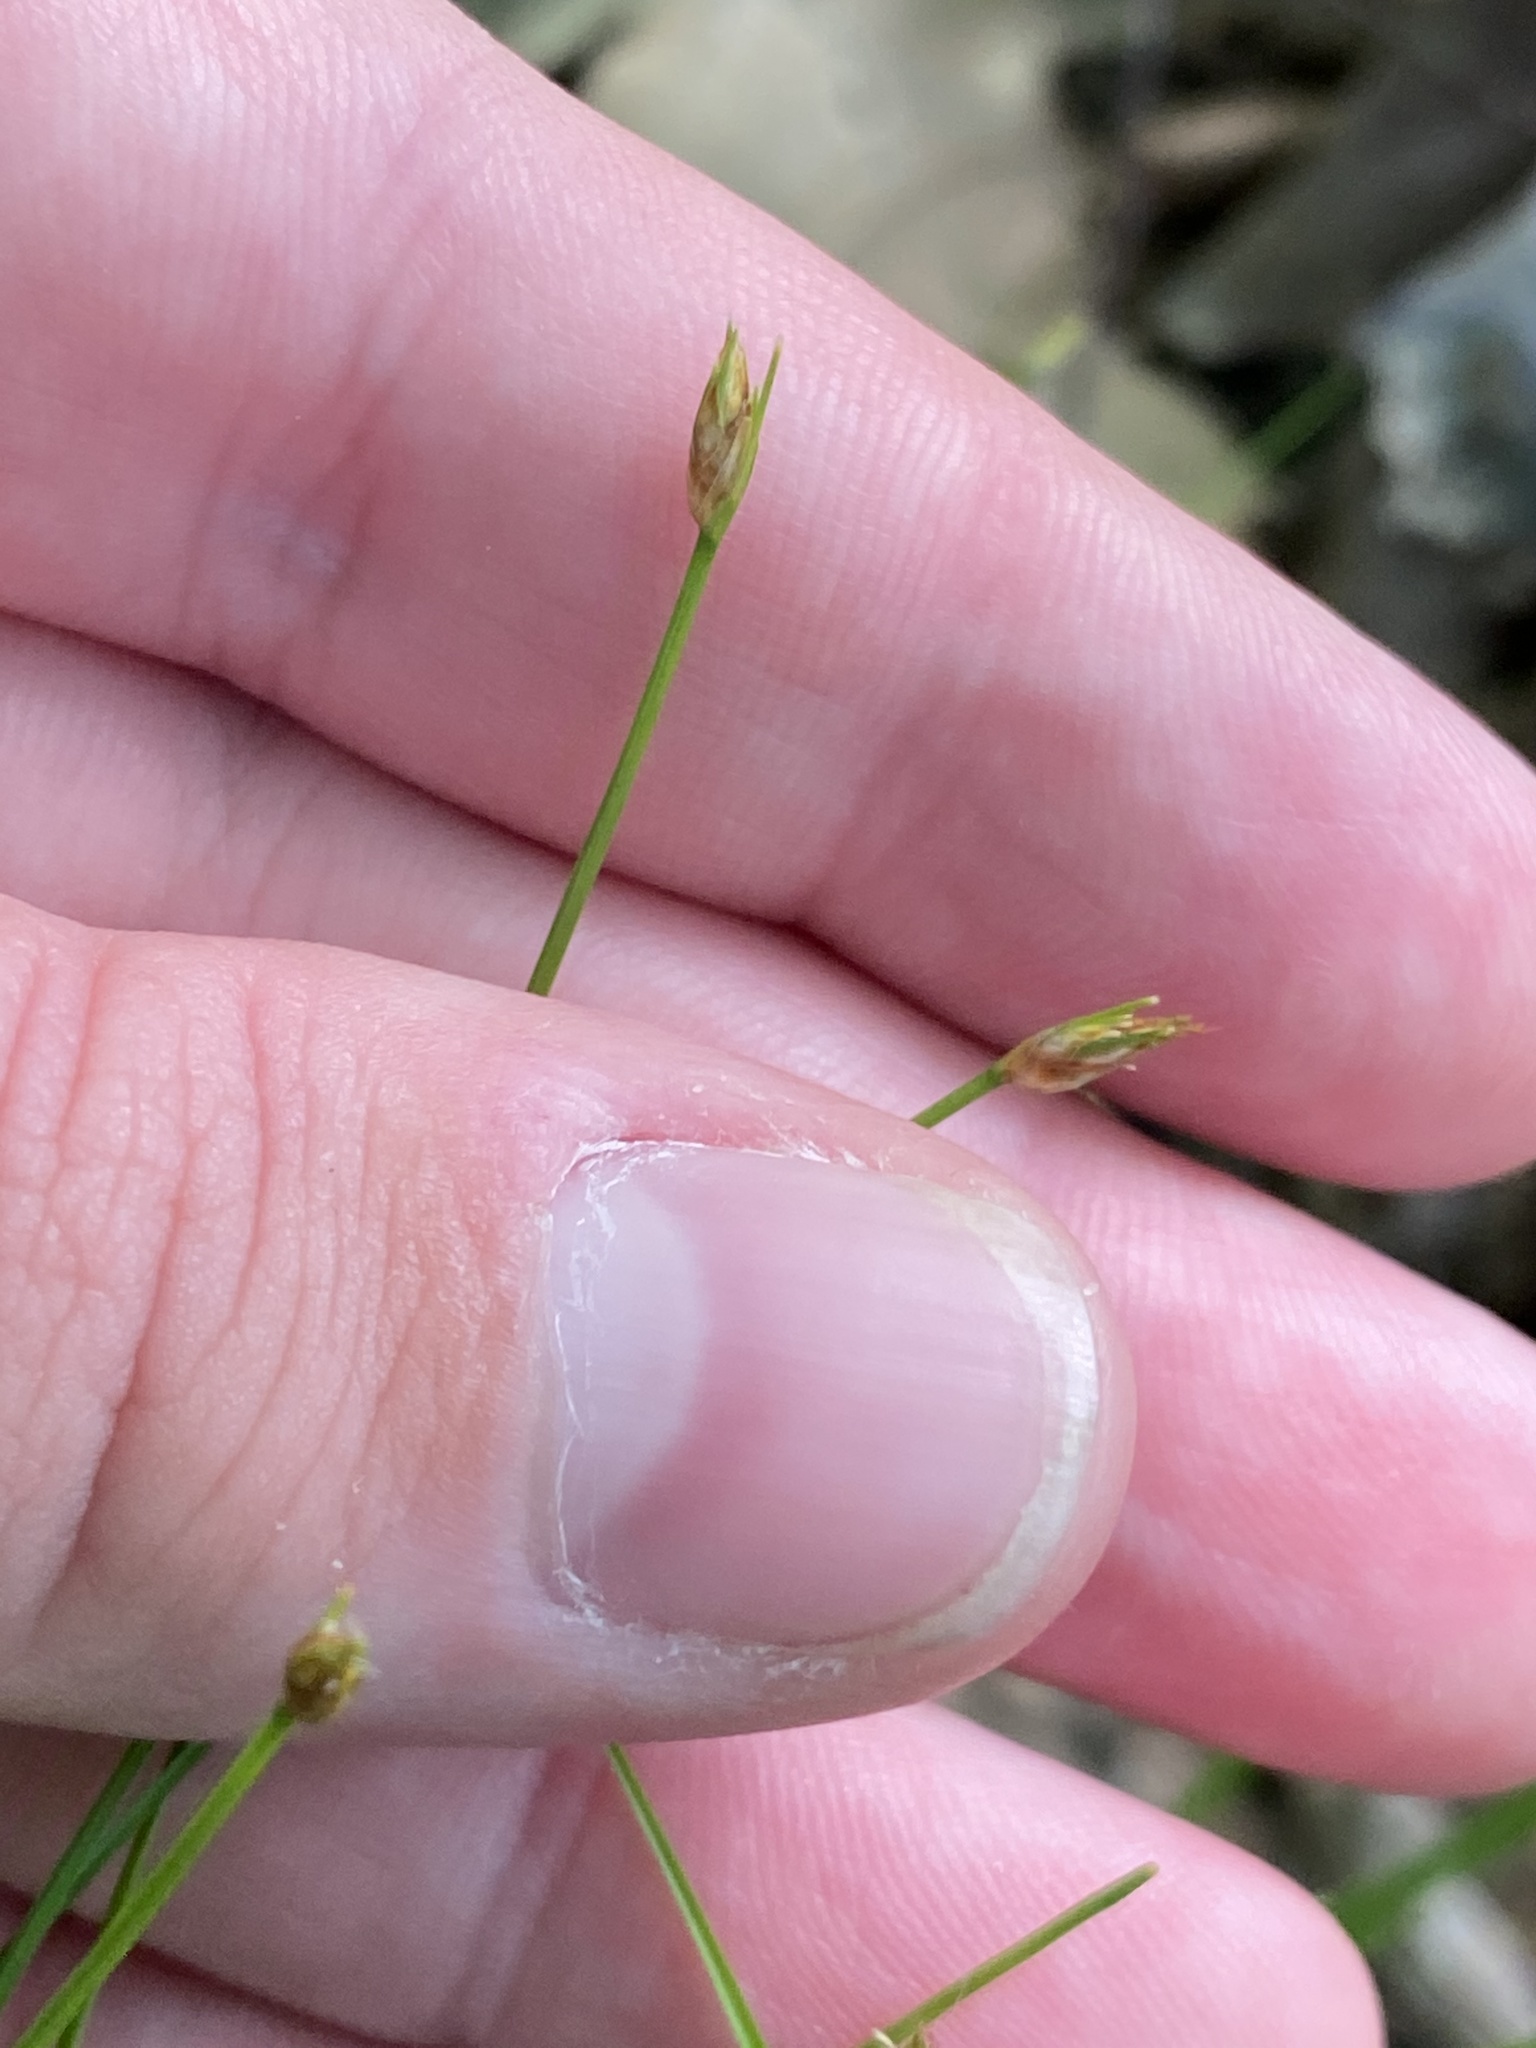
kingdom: Plantae
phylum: Tracheophyta
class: Liliopsida
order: Poales
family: Cyperaceae
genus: Trichophorum
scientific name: Trichophorum planifolium
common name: Bashful bulrush
